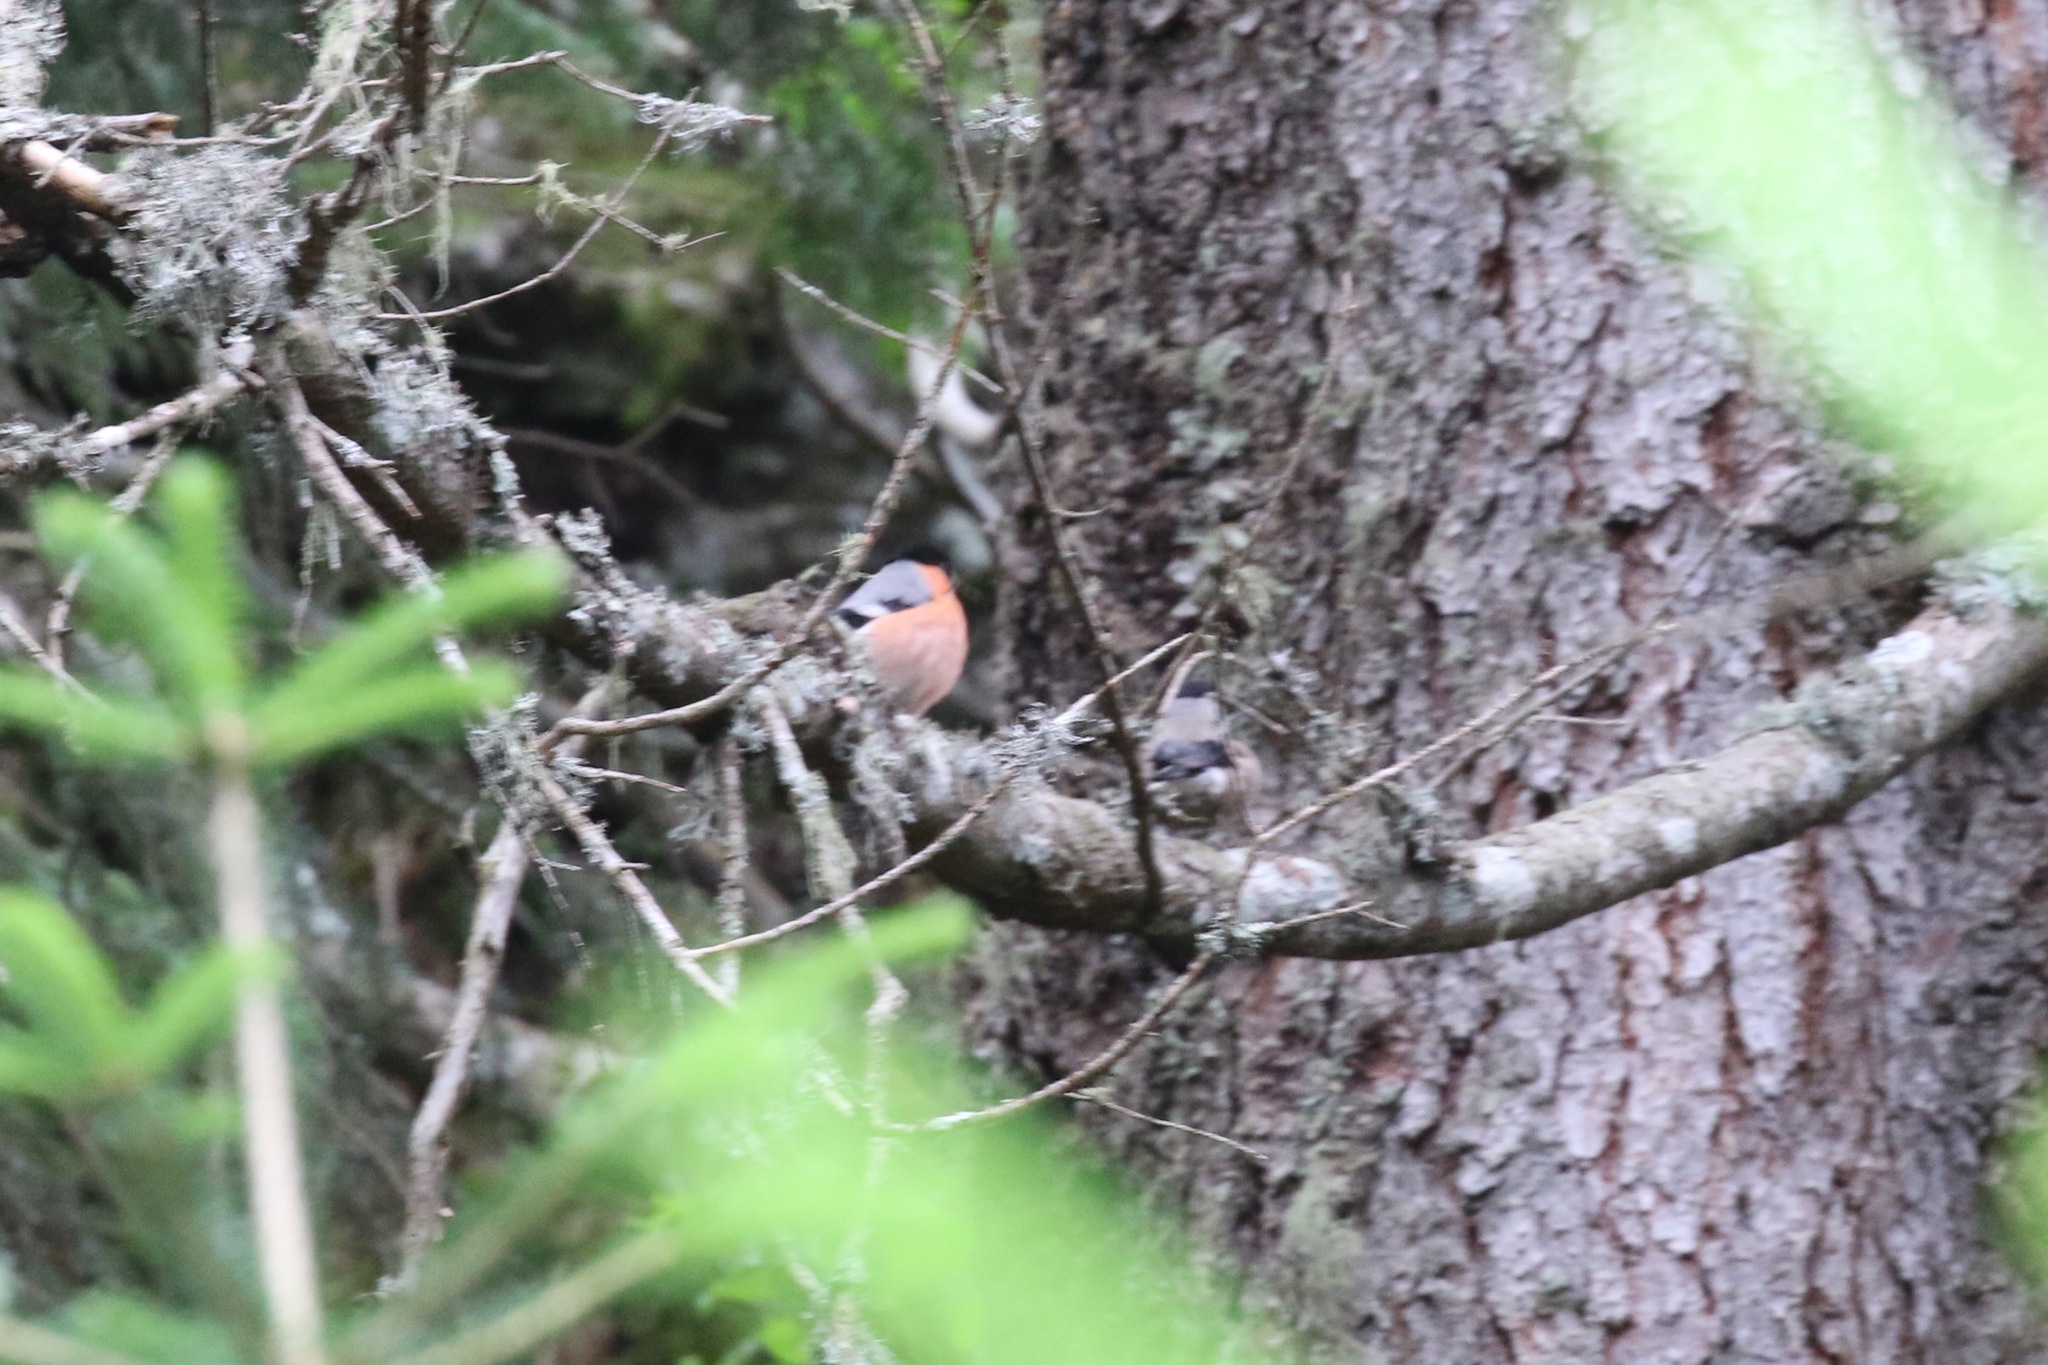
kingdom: Animalia
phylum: Chordata
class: Aves
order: Passeriformes
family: Fringillidae
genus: Pyrrhula
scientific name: Pyrrhula pyrrhula
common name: Eurasian bullfinch
